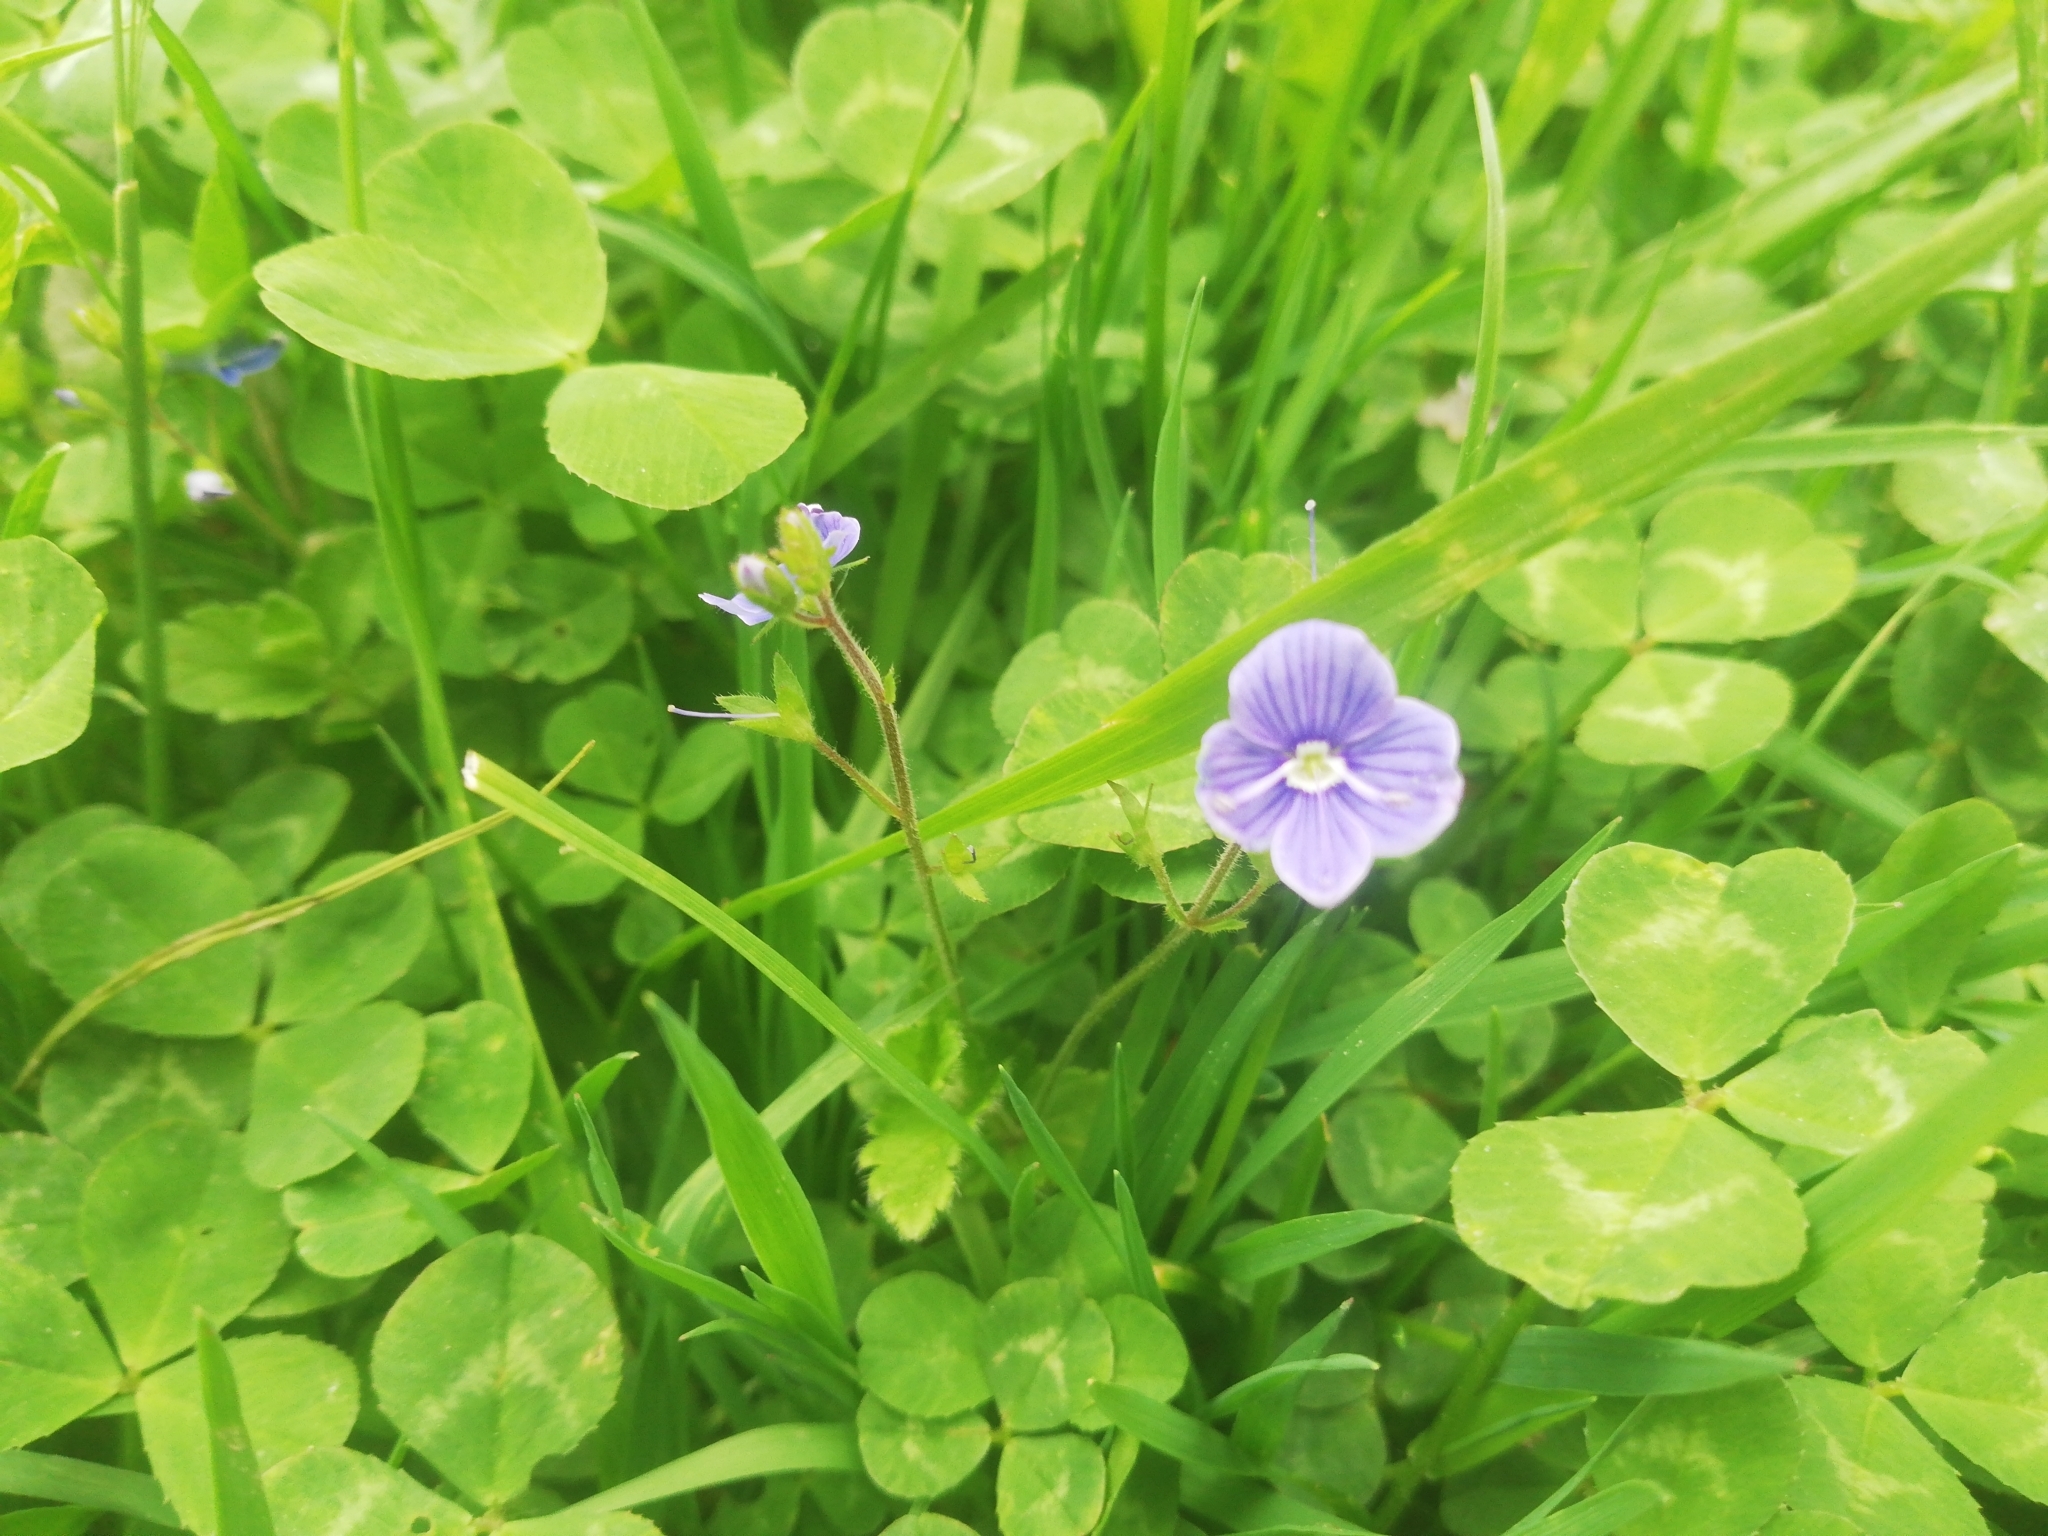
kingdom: Plantae
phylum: Tracheophyta
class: Magnoliopsida
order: Lamiales
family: Plantaginaceae
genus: Veronica
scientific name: Veronica chamaedrys
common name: Germander speedwell
